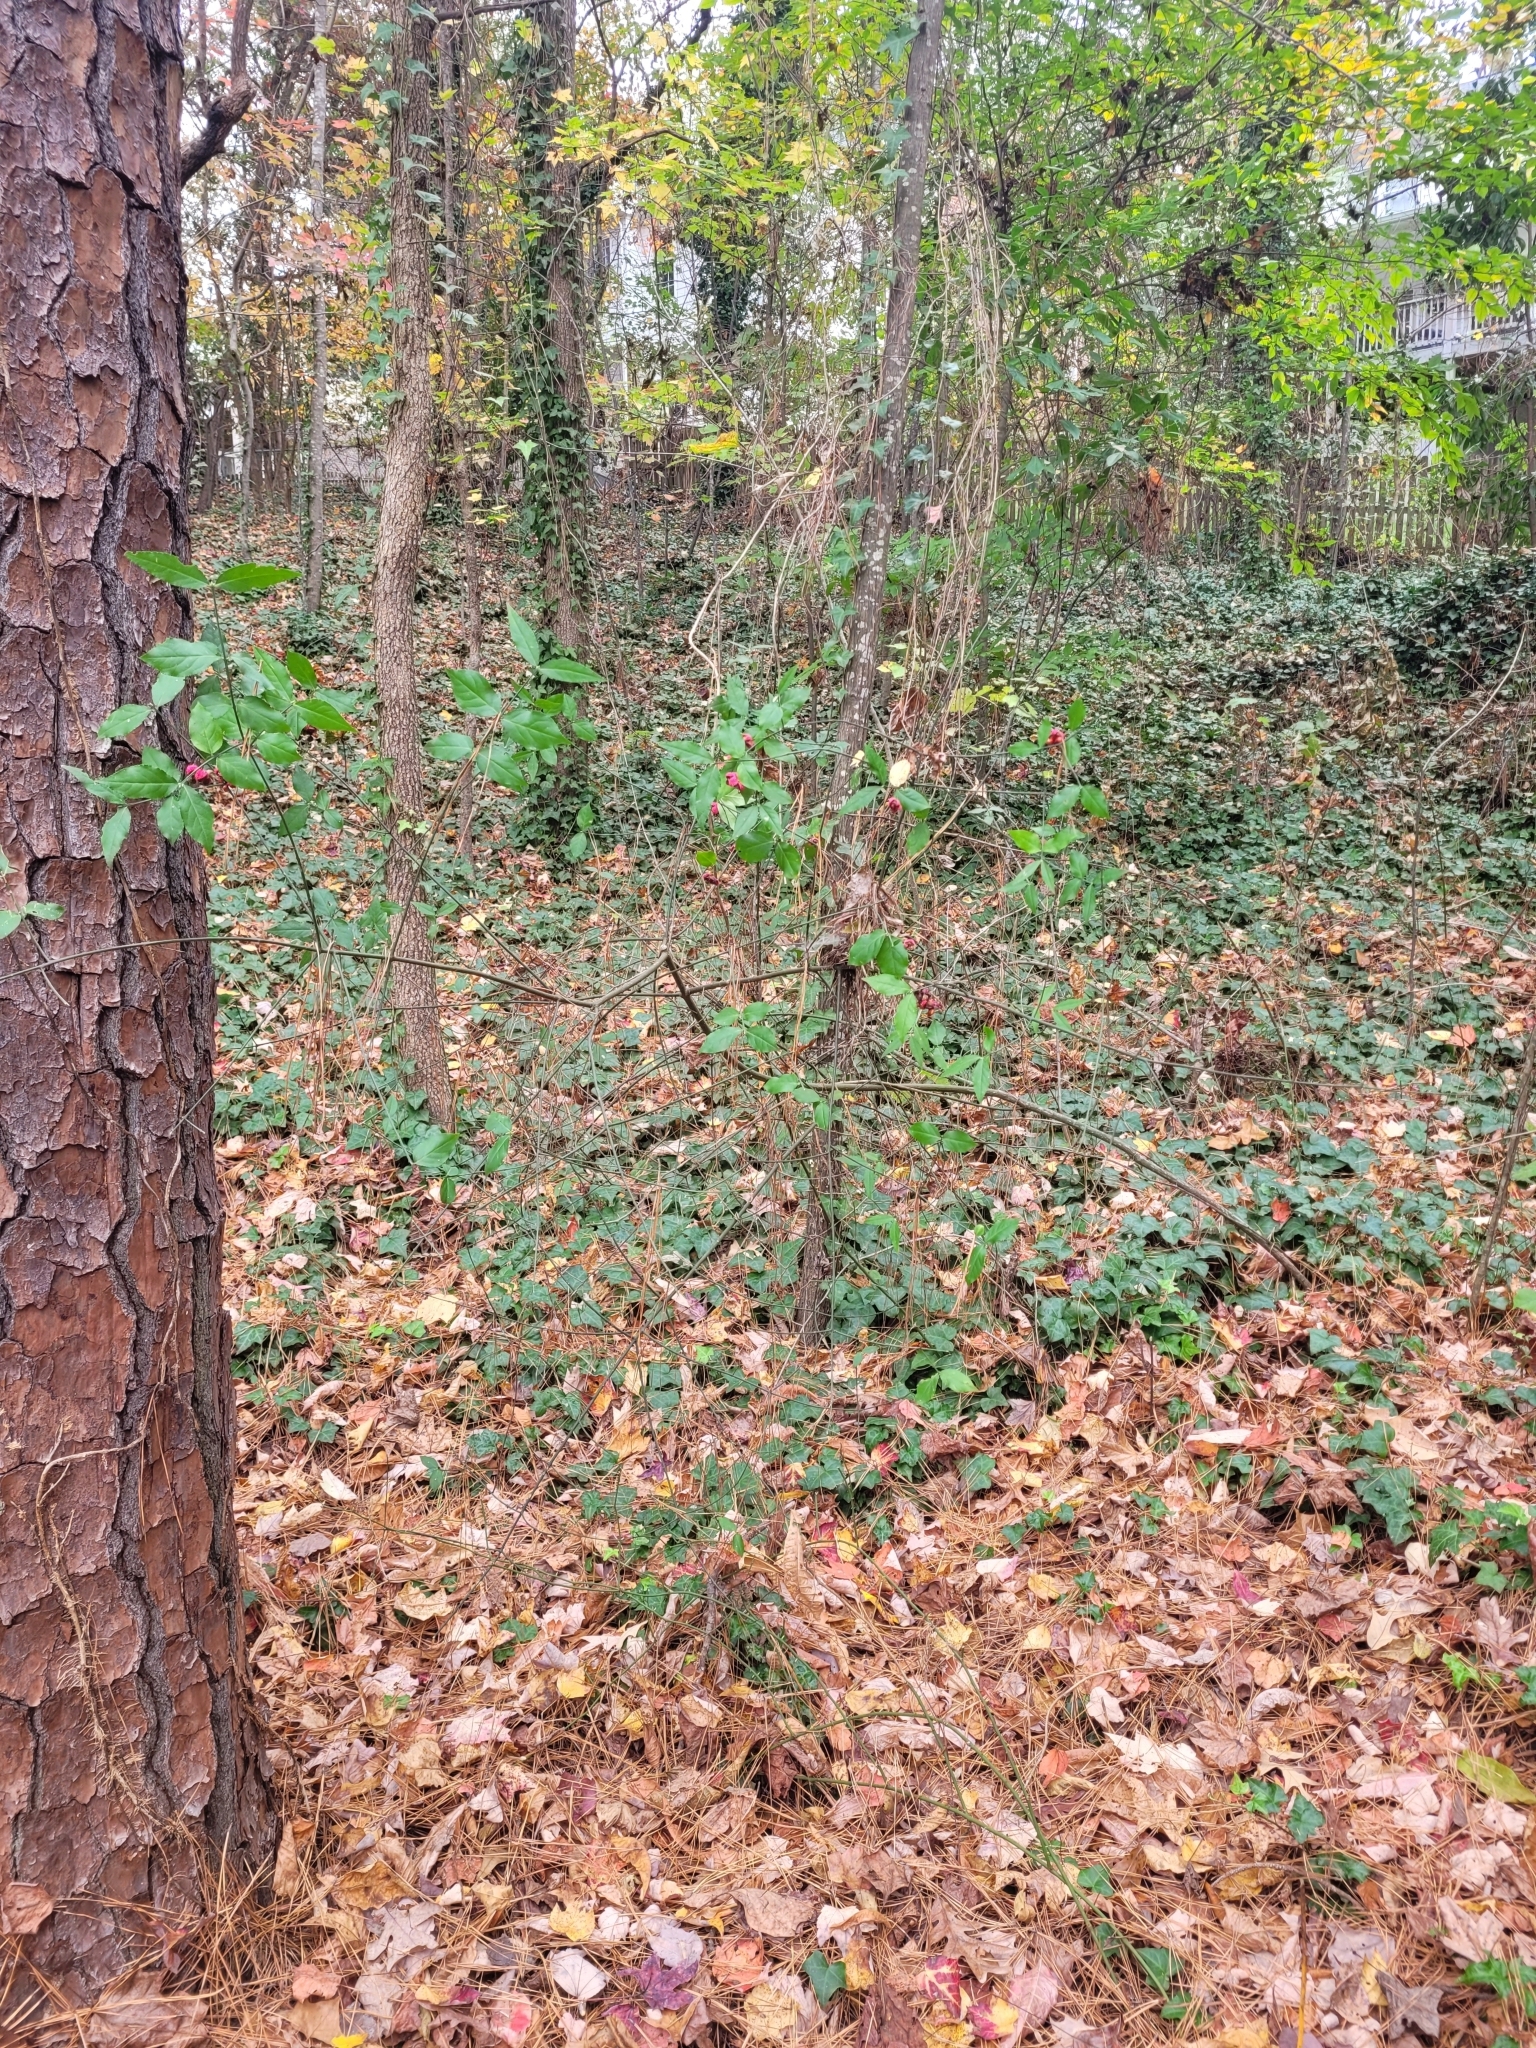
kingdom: Plantae
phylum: Tracheophyta
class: Magnoliopsida
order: Celastrales
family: Celastraceae
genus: Euonymus
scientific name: Euonymus americanus
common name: Bursting-heart
